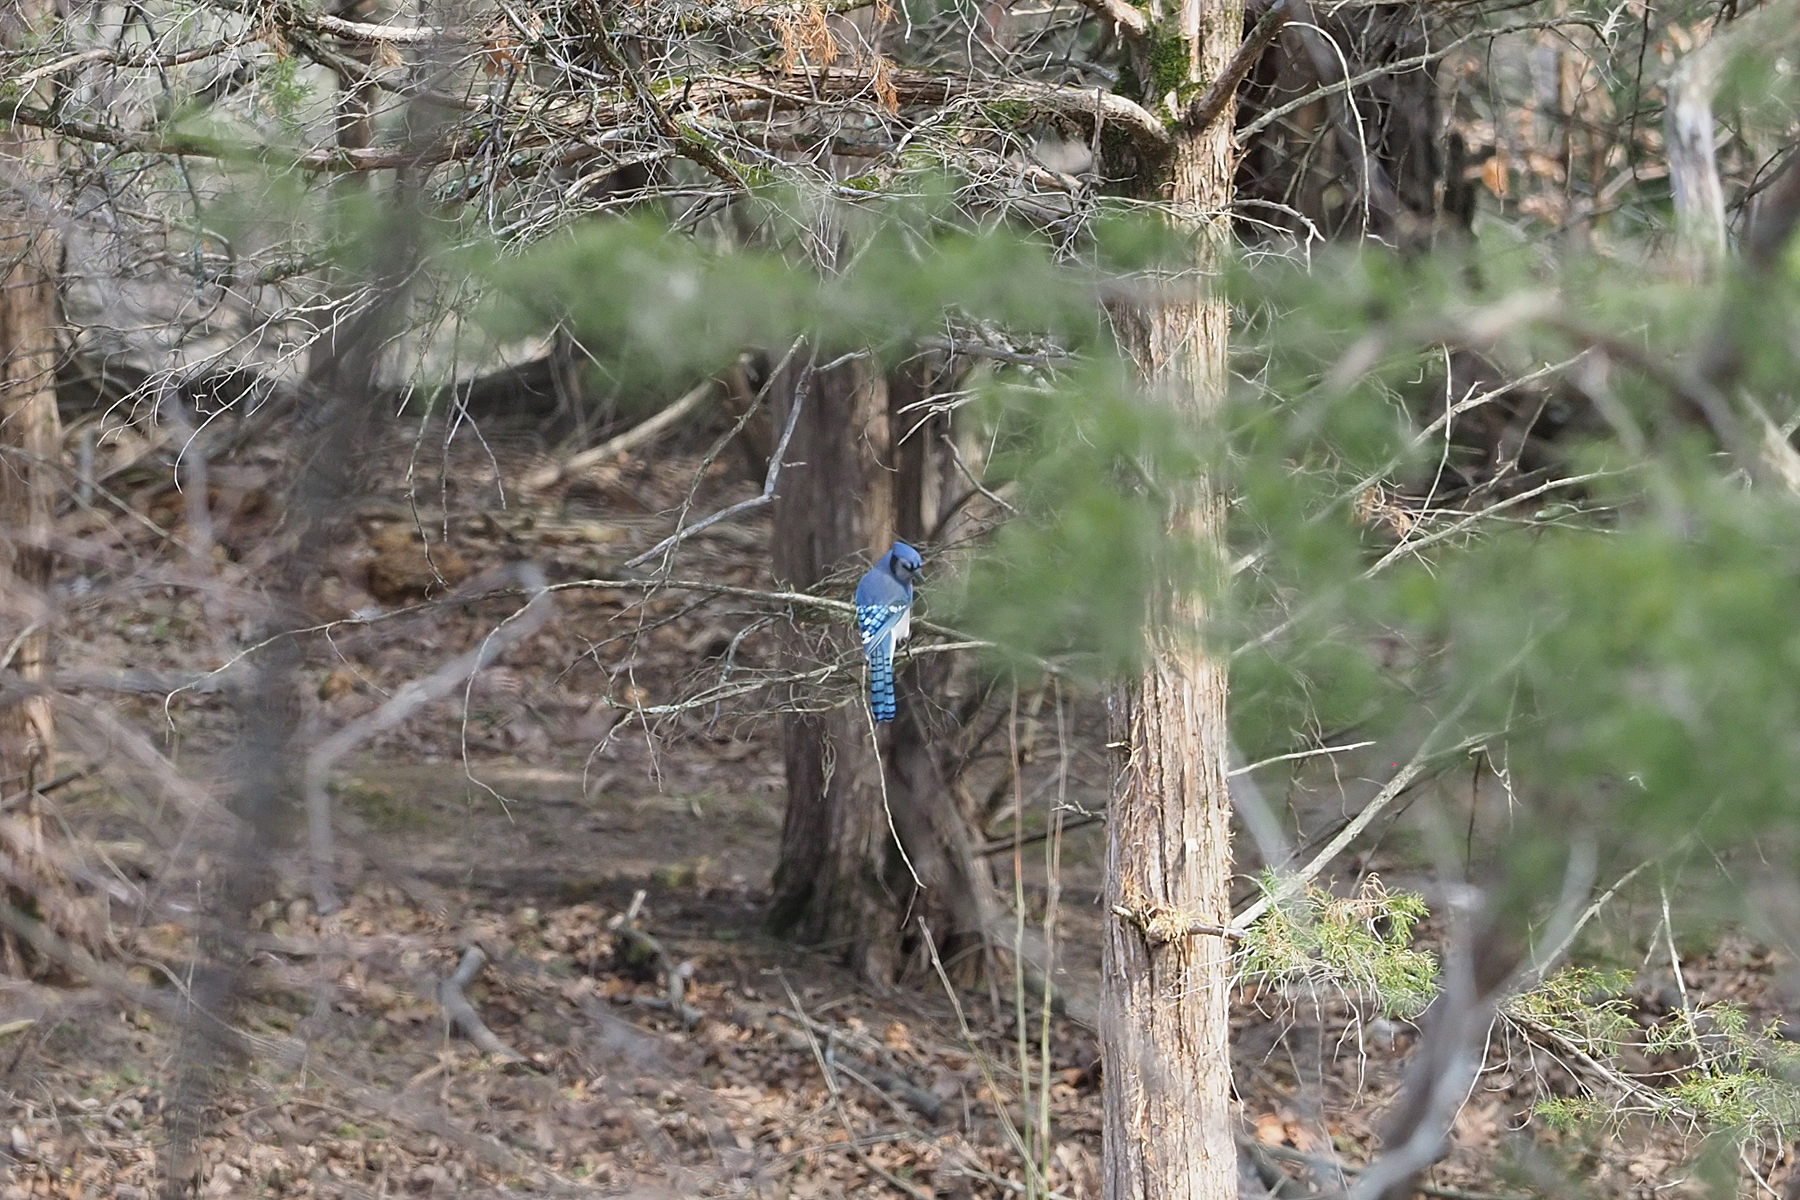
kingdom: Animalia
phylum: Chordata
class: Aves
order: Passeriformes
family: Corvidae
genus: Cyanocitta
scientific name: Cyanocitta cristata
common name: Blue jay
